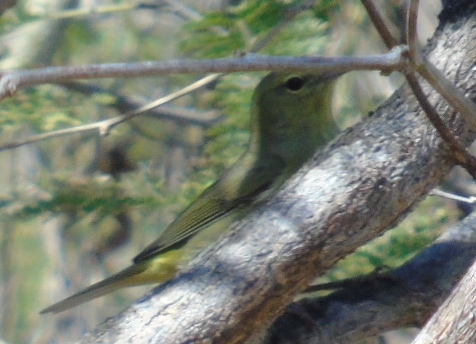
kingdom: Animalia
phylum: Chordata
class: Aves
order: Passeriformes
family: Parulidae
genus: Leiothlypis
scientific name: Leiothlypis celata
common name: Orange-crowned warbler
